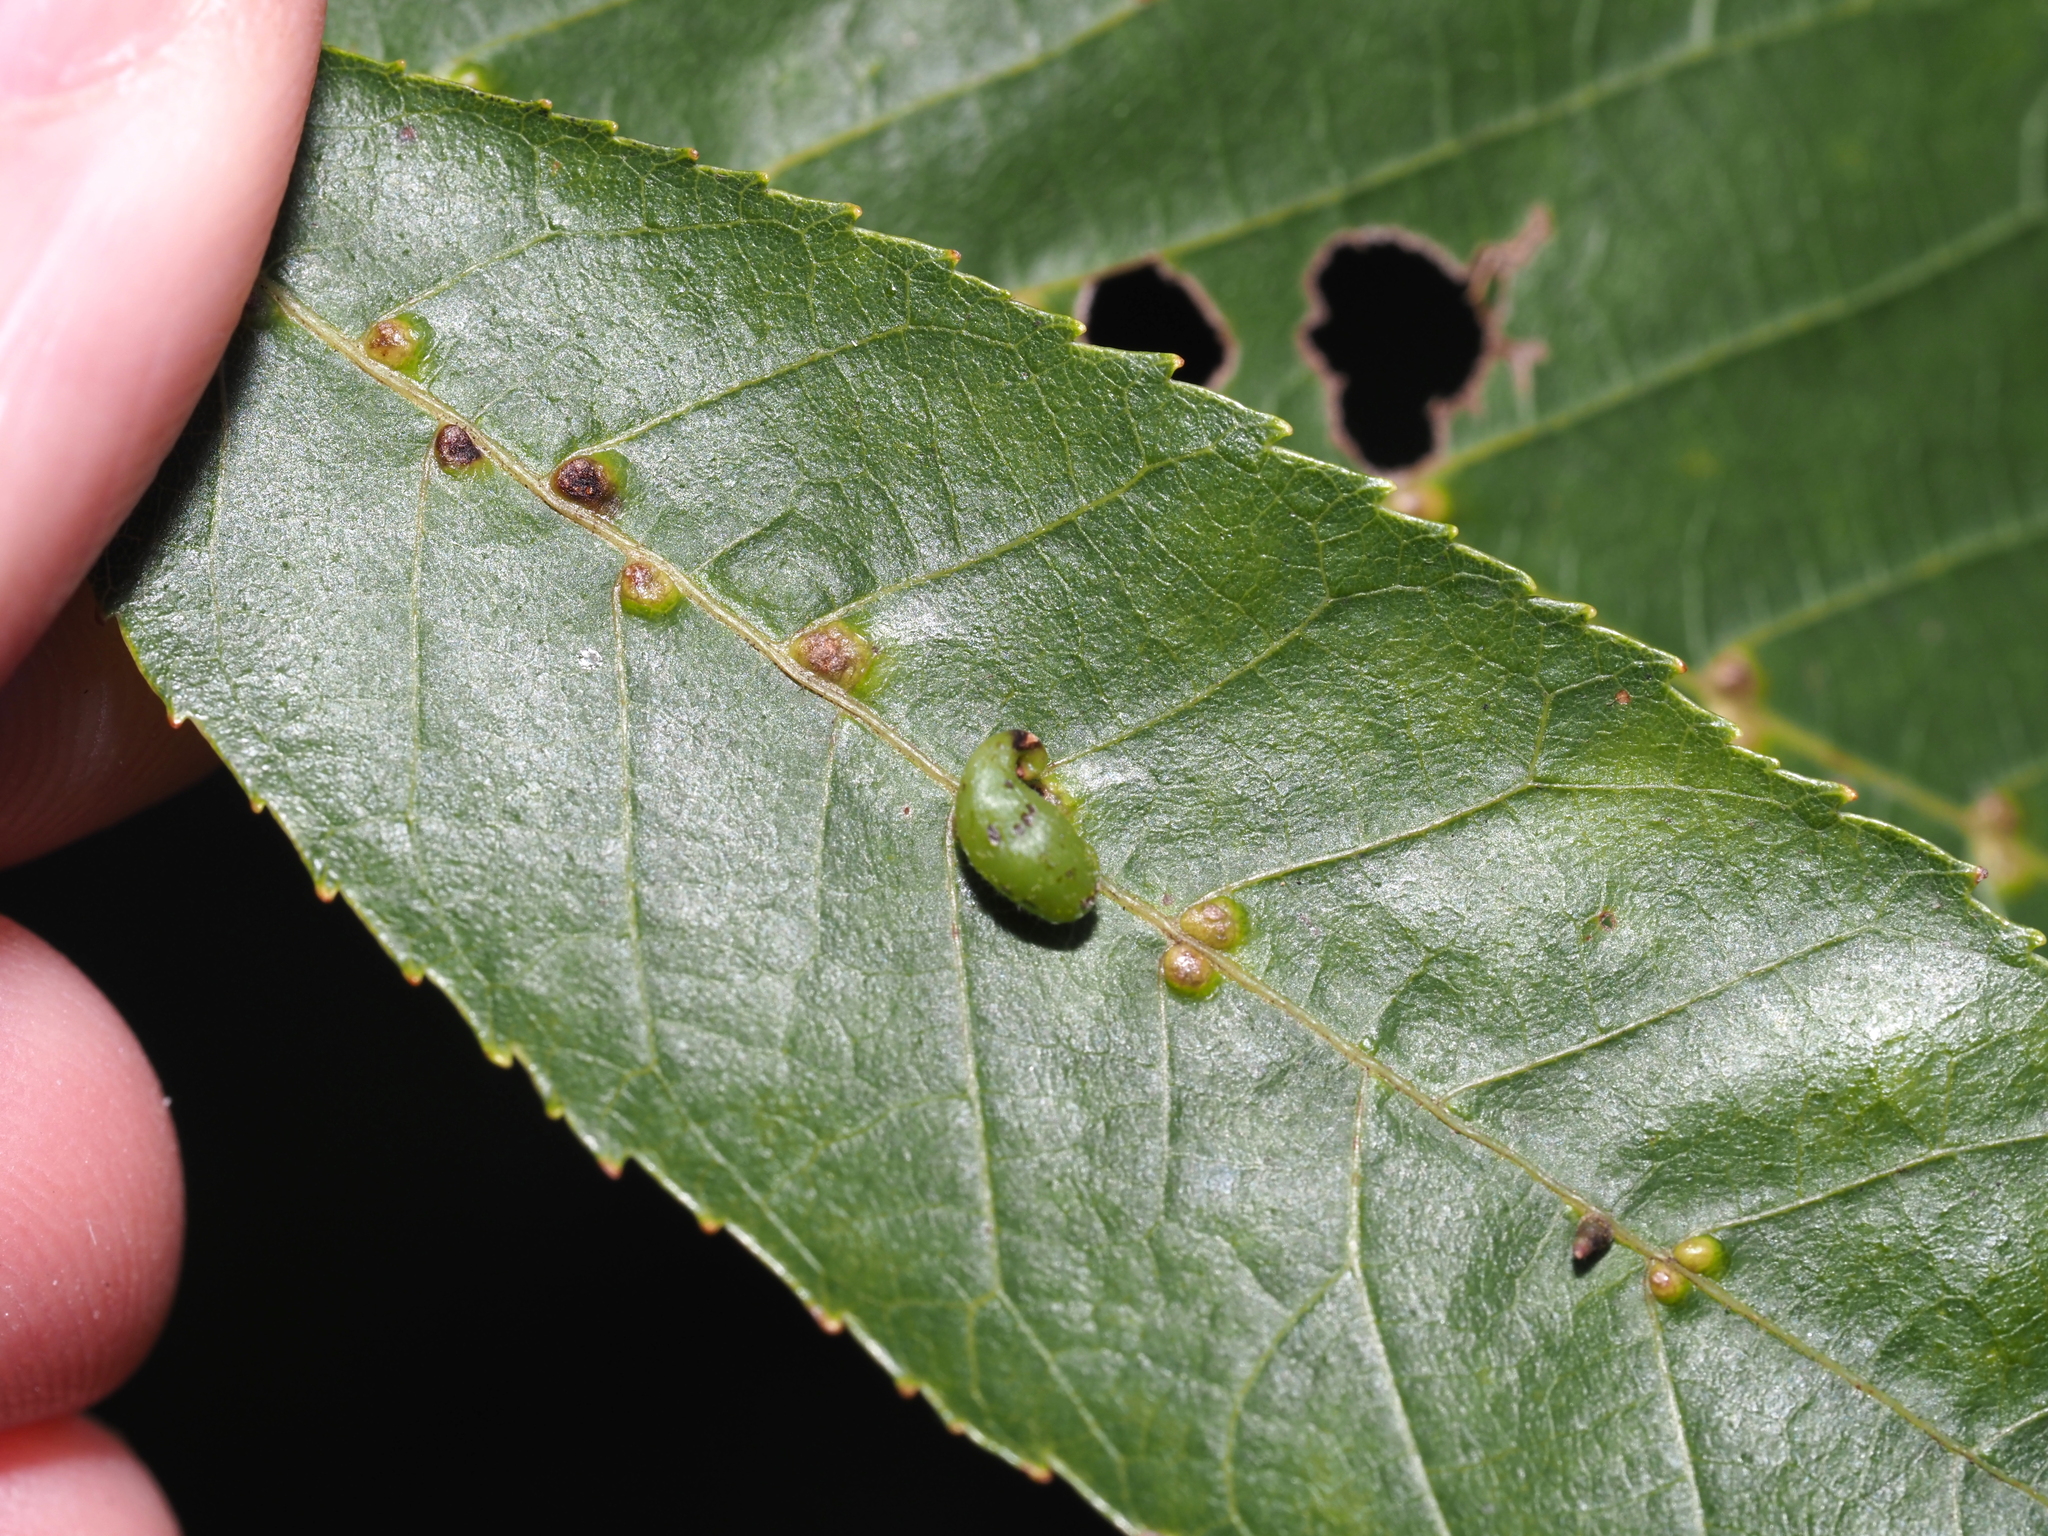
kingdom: Animalia
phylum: Arthropoda
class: Arachnida
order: Trombidiformes
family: Eriophyidae
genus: Aceria
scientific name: Aceria
